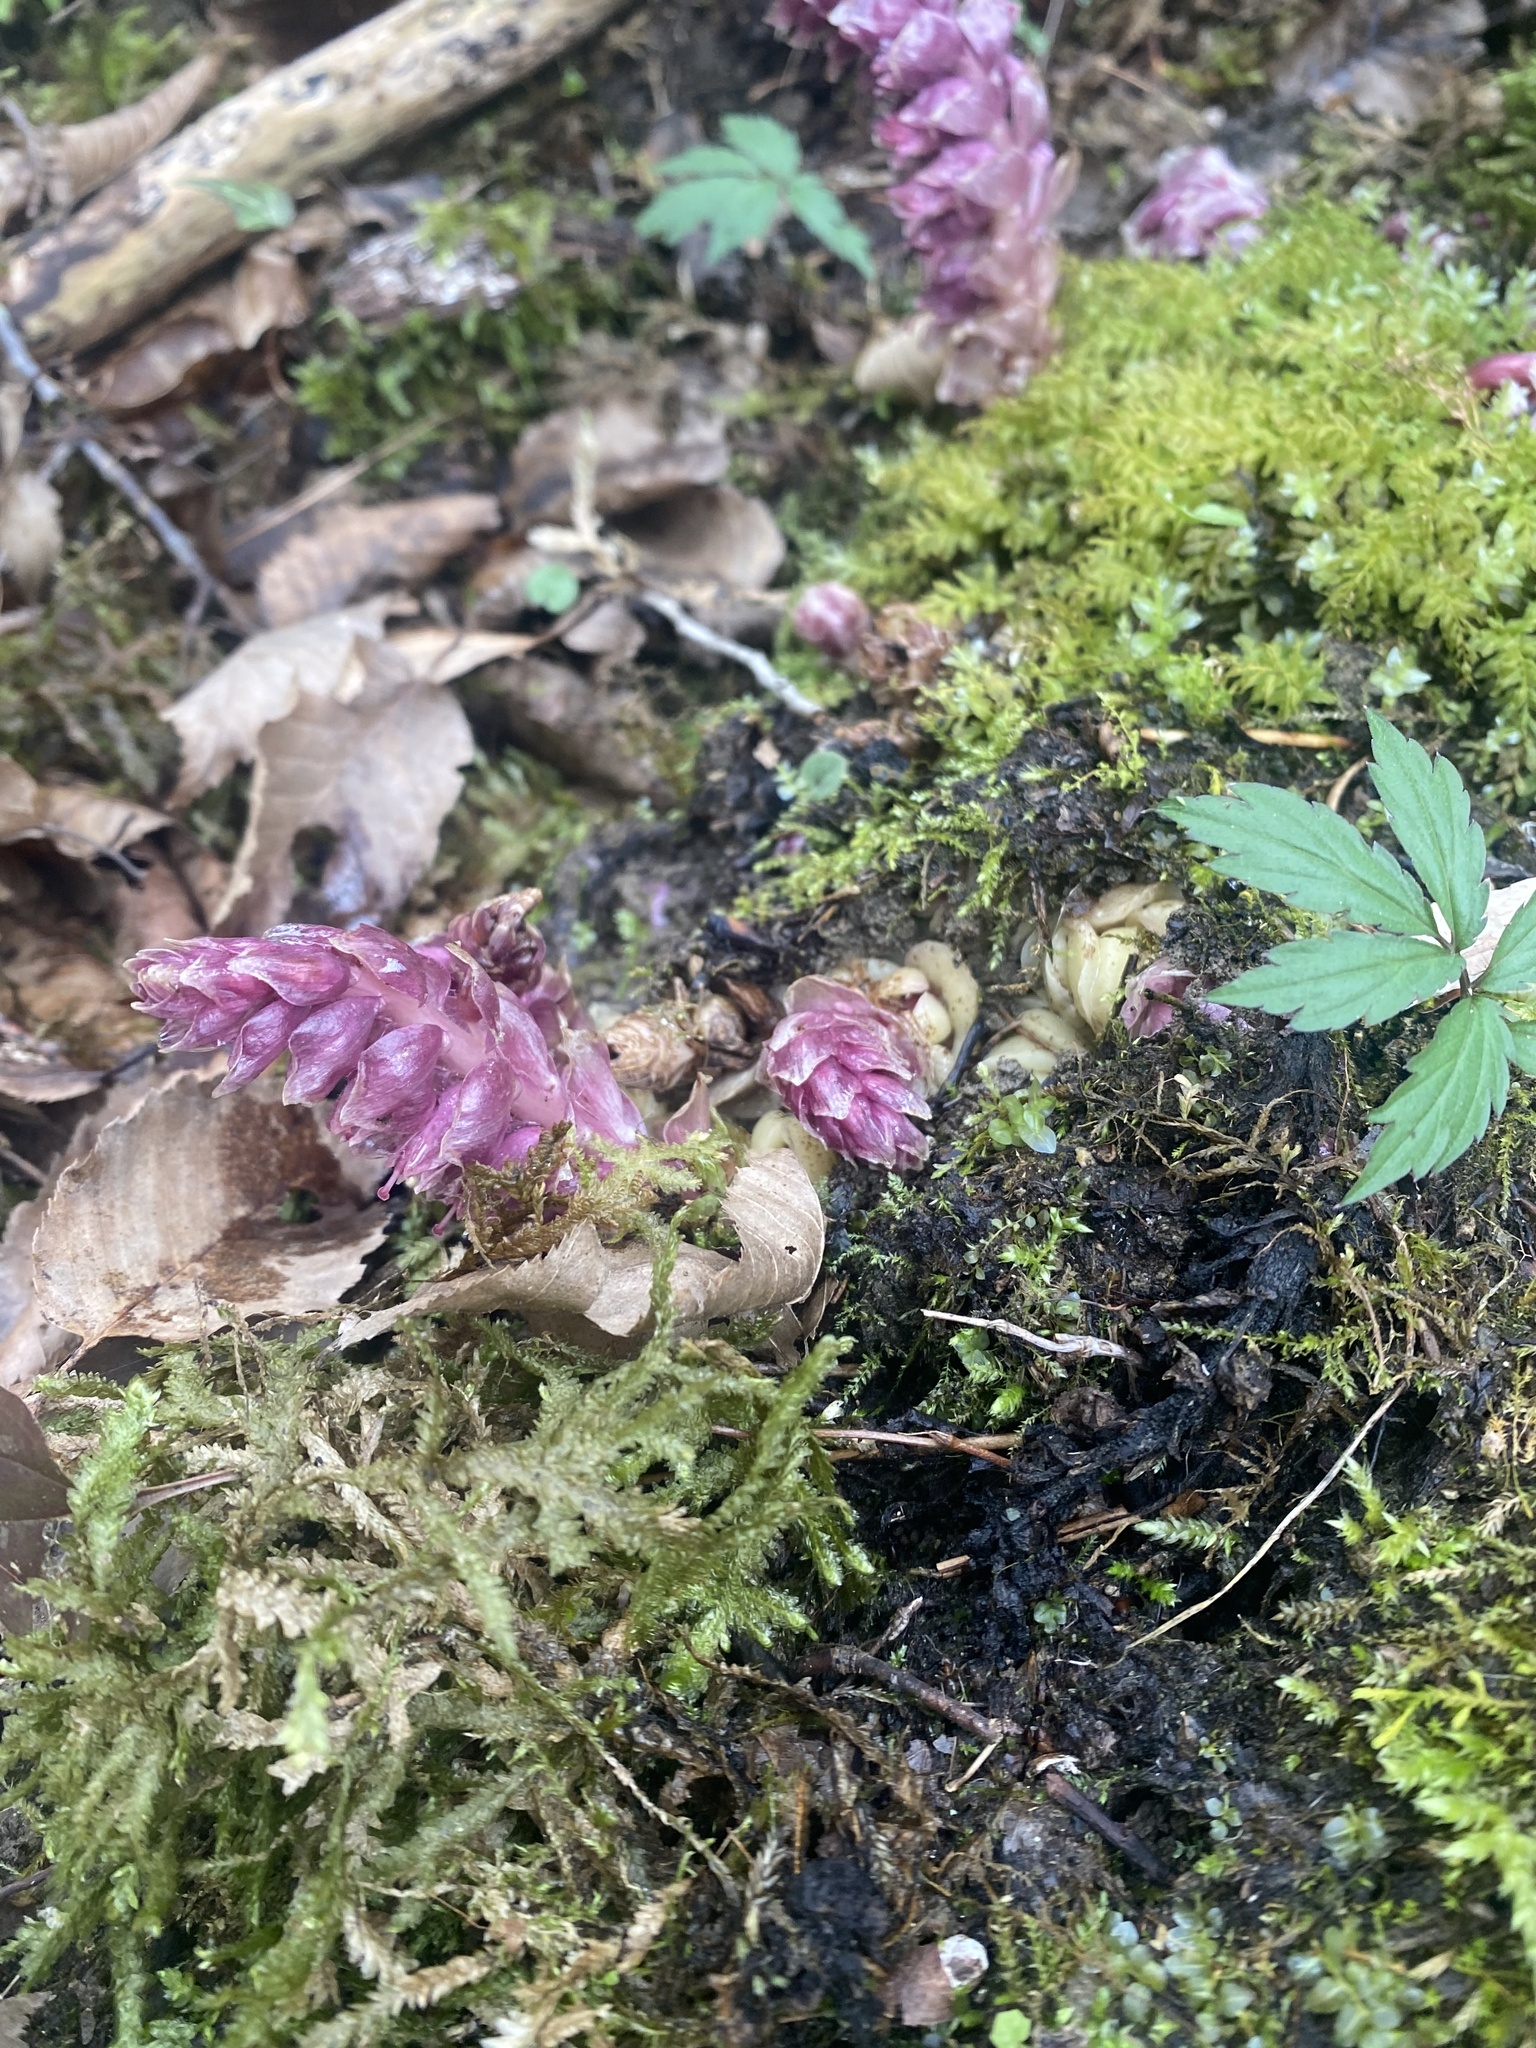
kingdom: Plantae
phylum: Tracheophyta
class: Magnoliopsida
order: Lamiales
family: Orobanchaceae
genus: Lathraea
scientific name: Lathraea squamaria
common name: Toothwort
